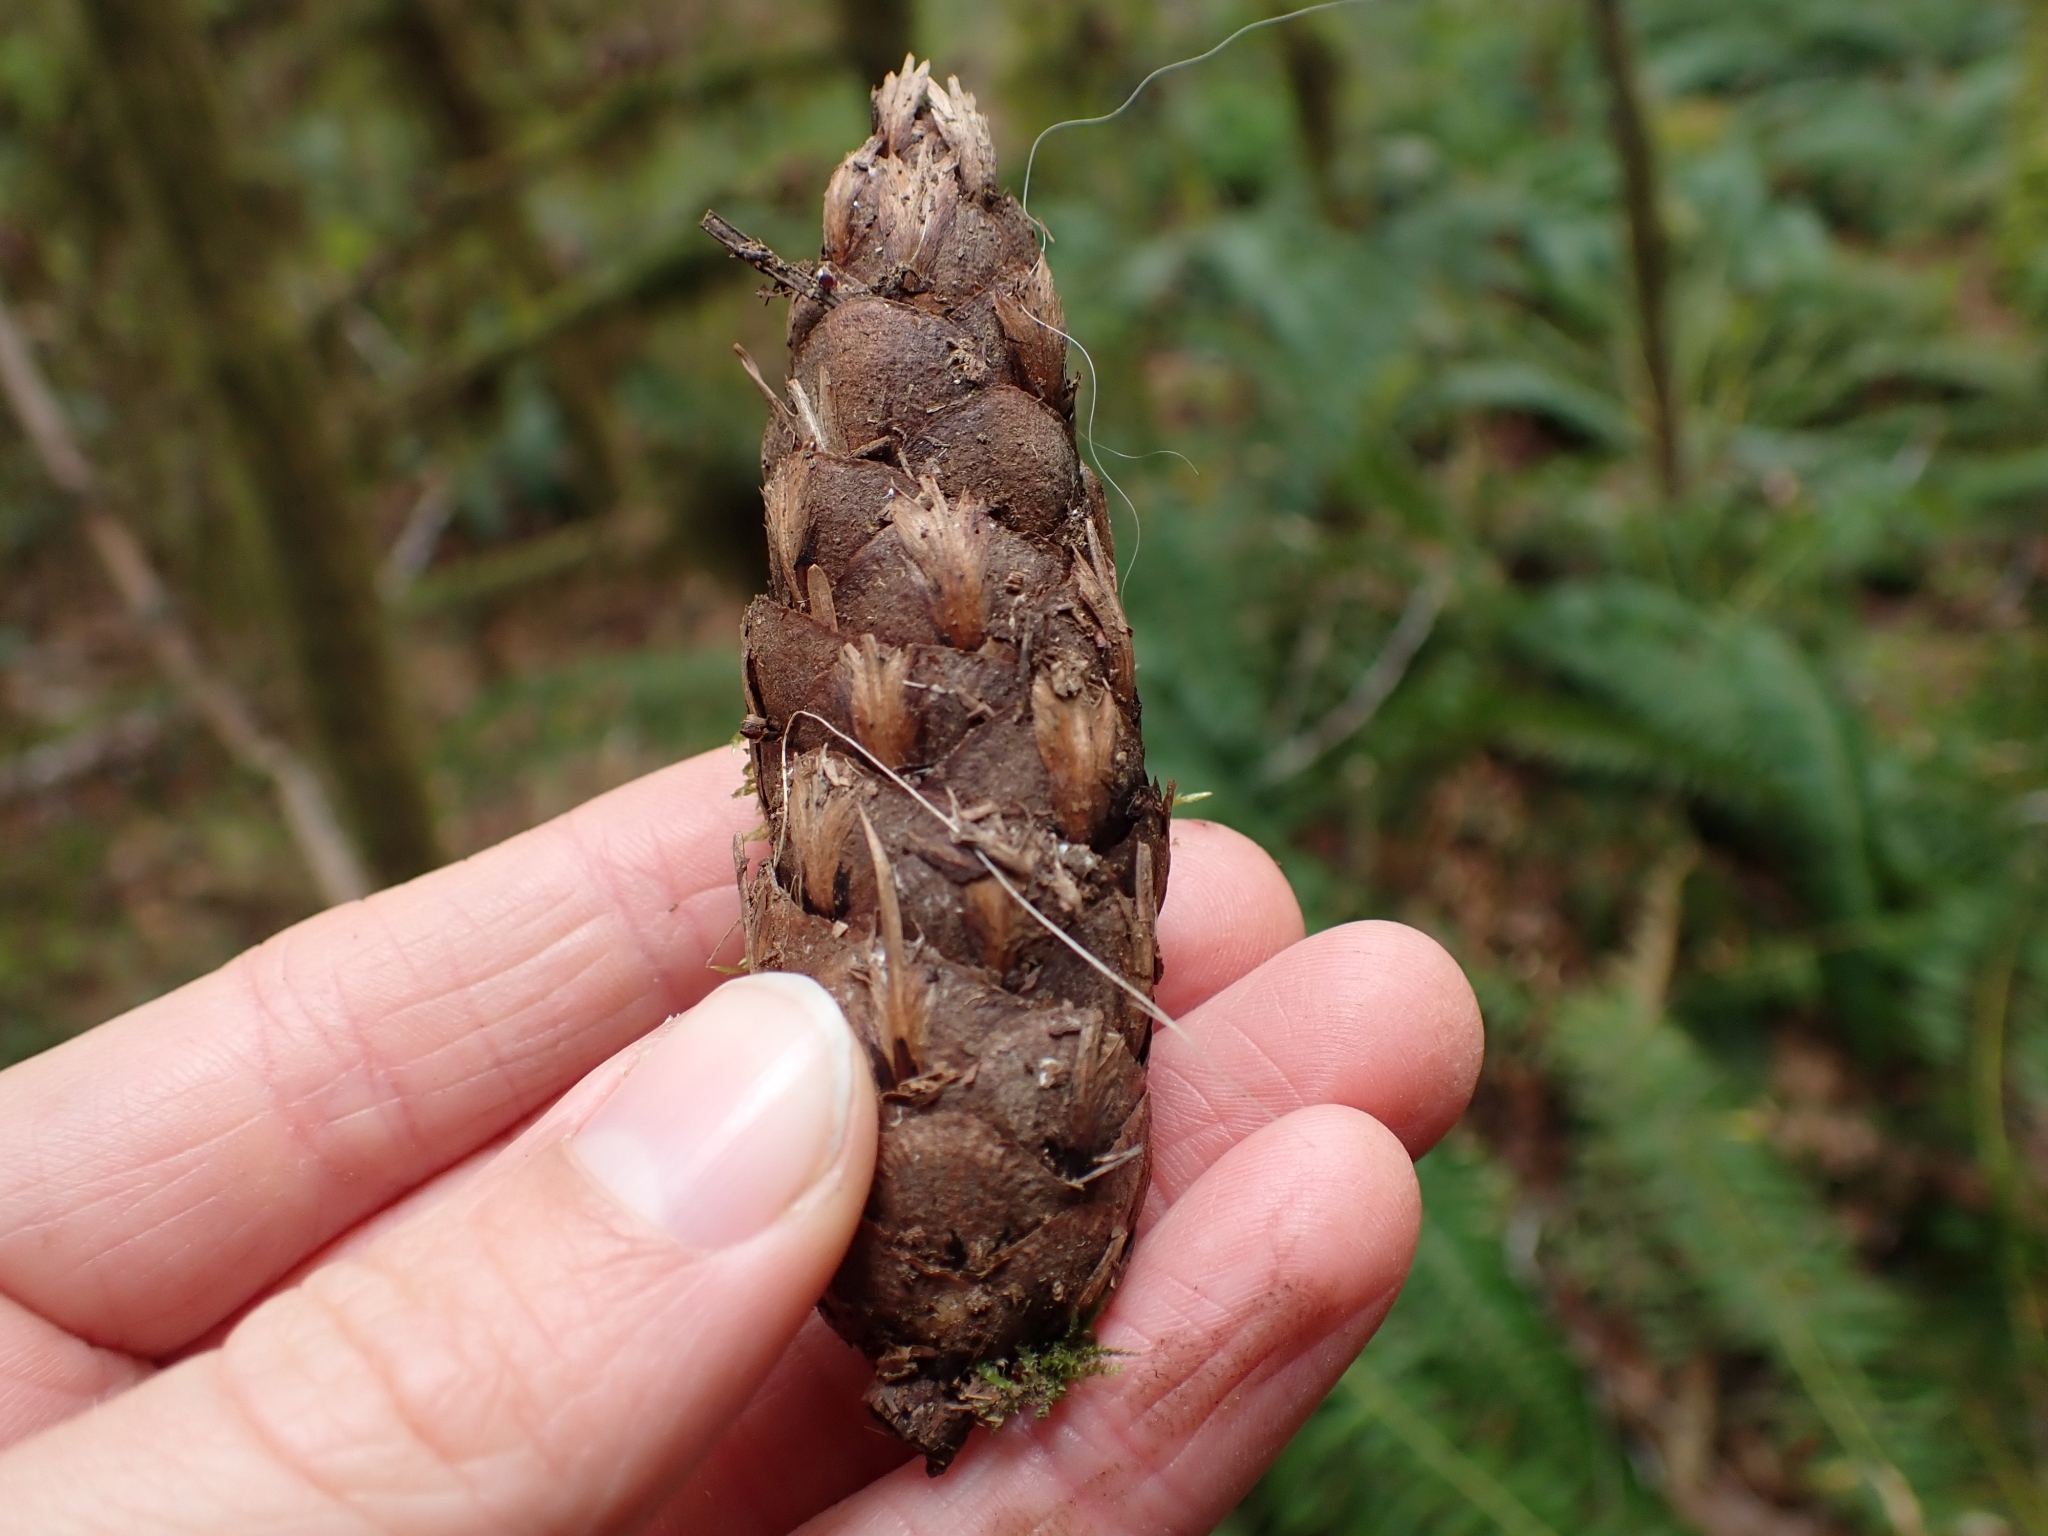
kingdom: Plantae
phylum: Tracheophyta
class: Pinopsida
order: Pinales
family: Pinaceae
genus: Pseudotsuga
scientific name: Pseudotsuga menziesii
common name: Douglas fir
